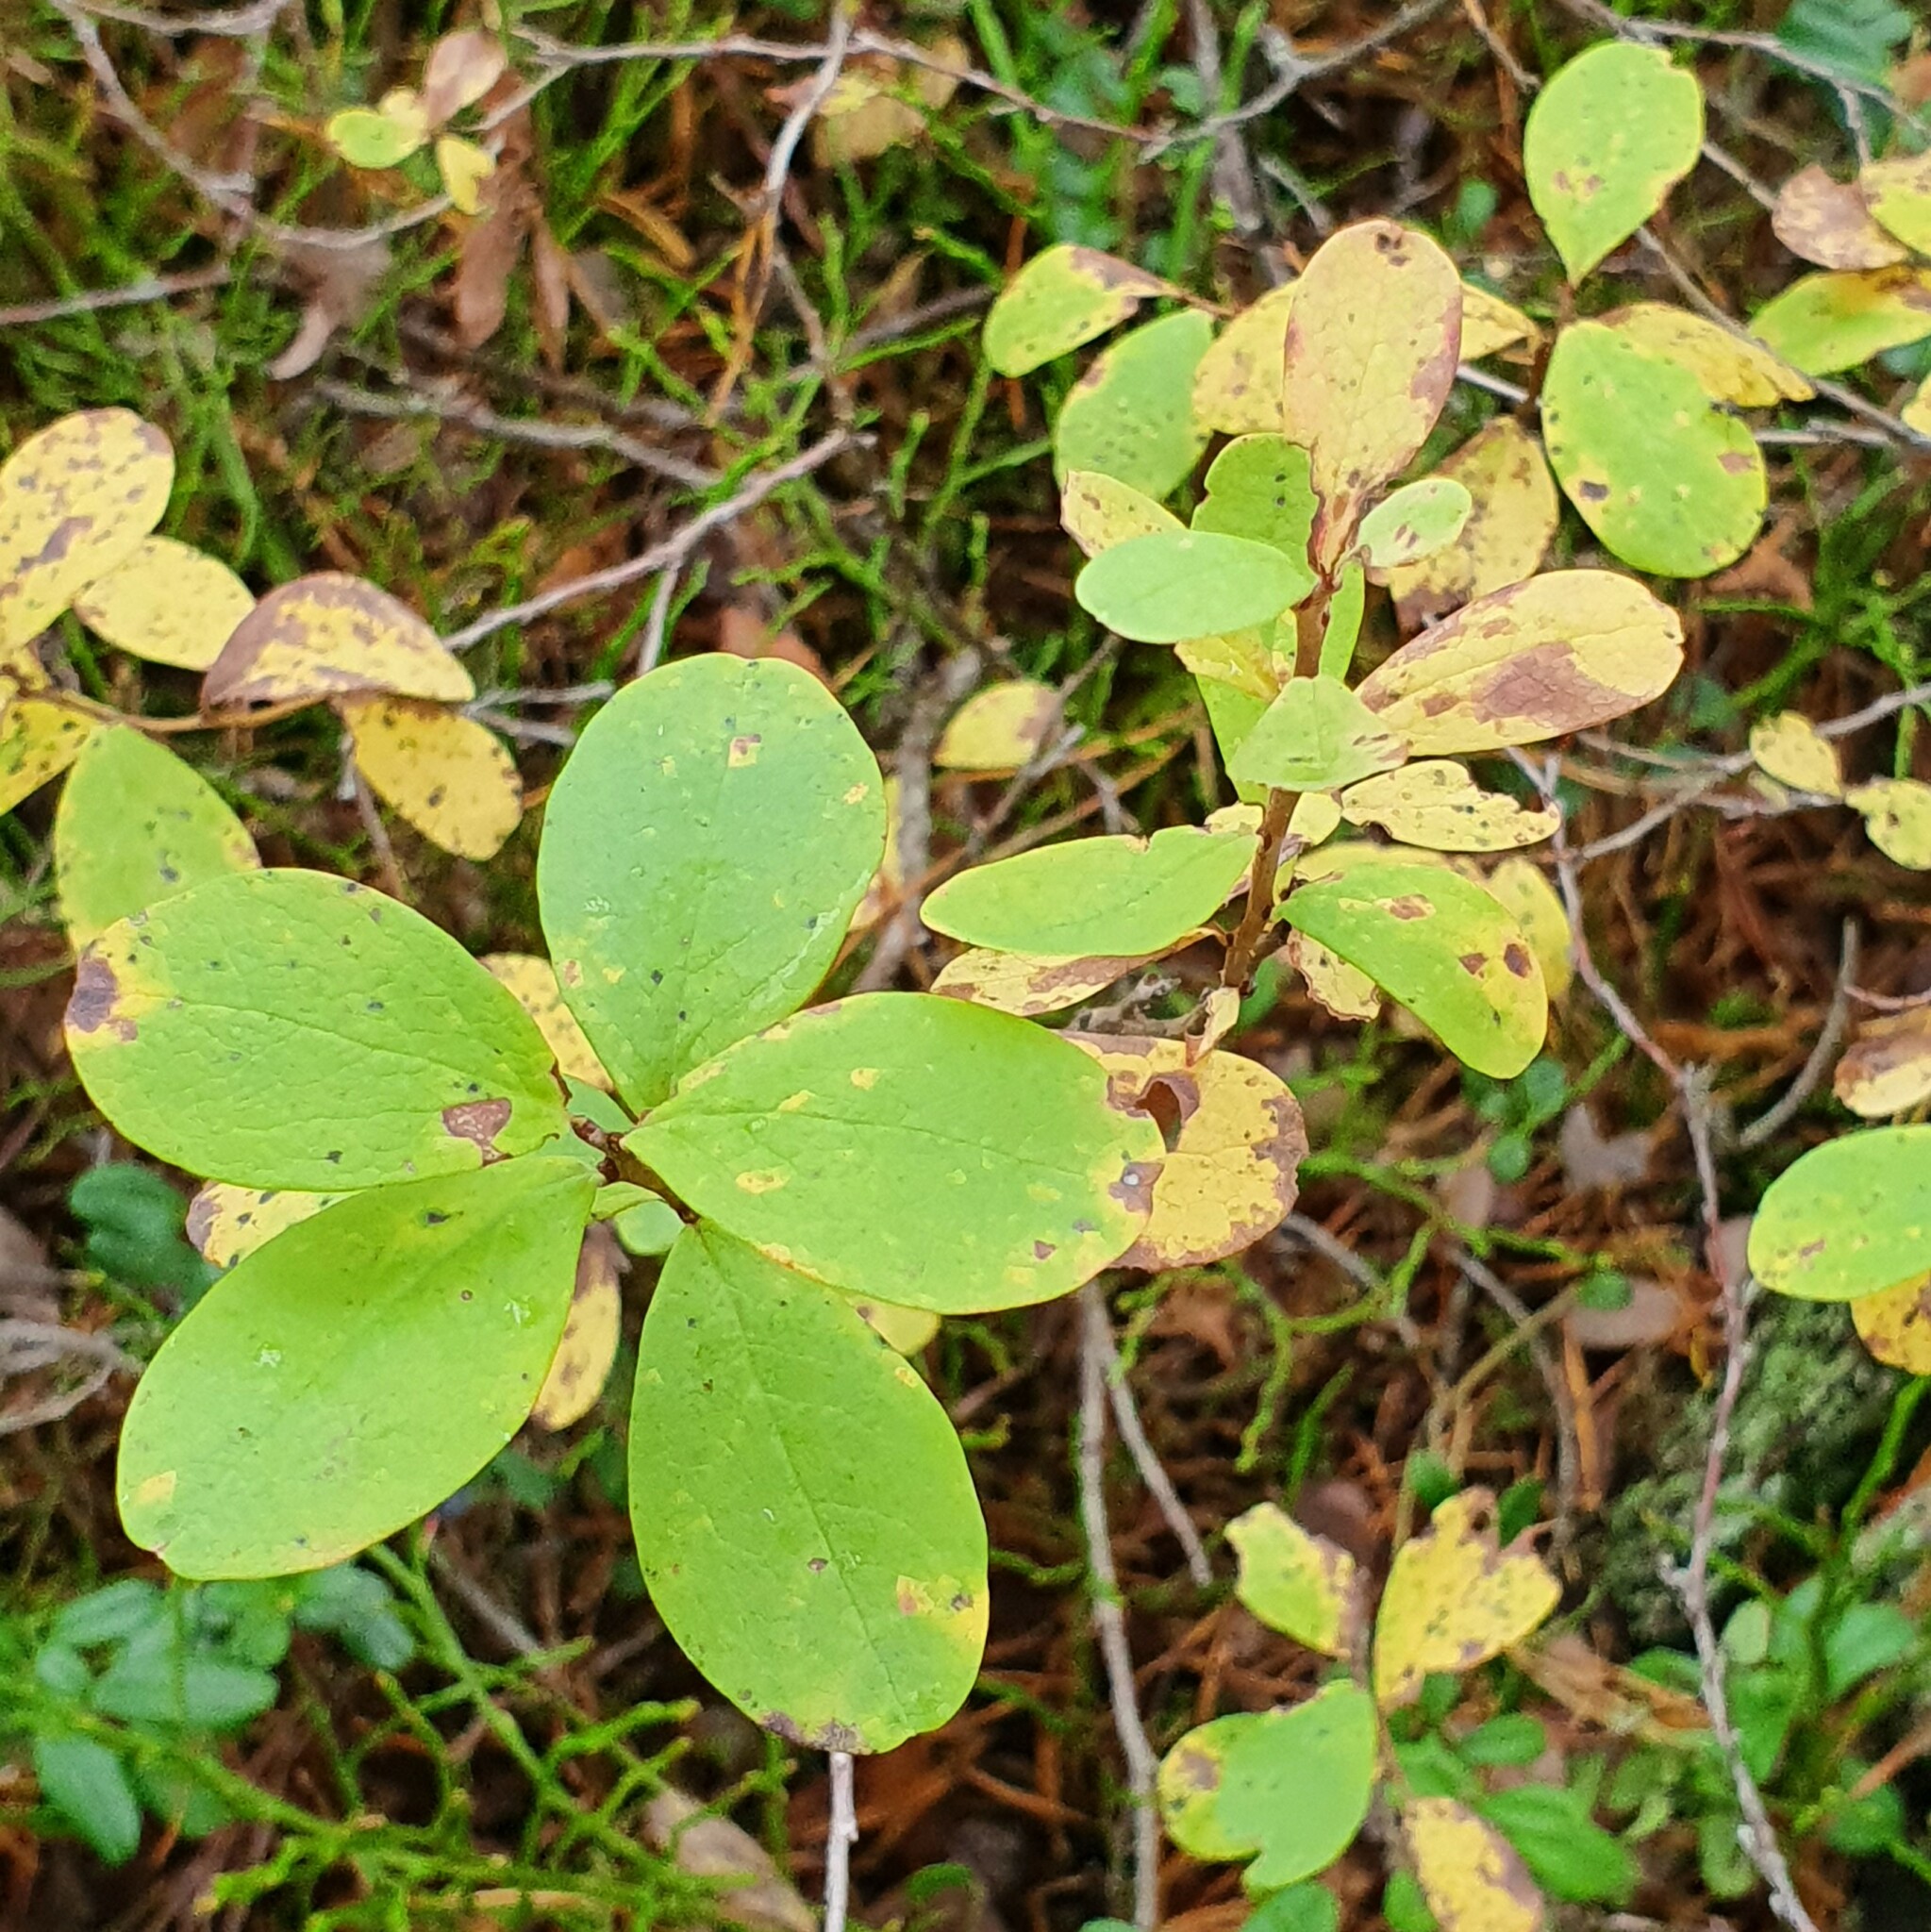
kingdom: Plantae
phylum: Tracheophyta
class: Magnoliopsida
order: Ericales
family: Ericaceae
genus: Vaccinium
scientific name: Vaccinium uliginosum
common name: Bog bilberry
